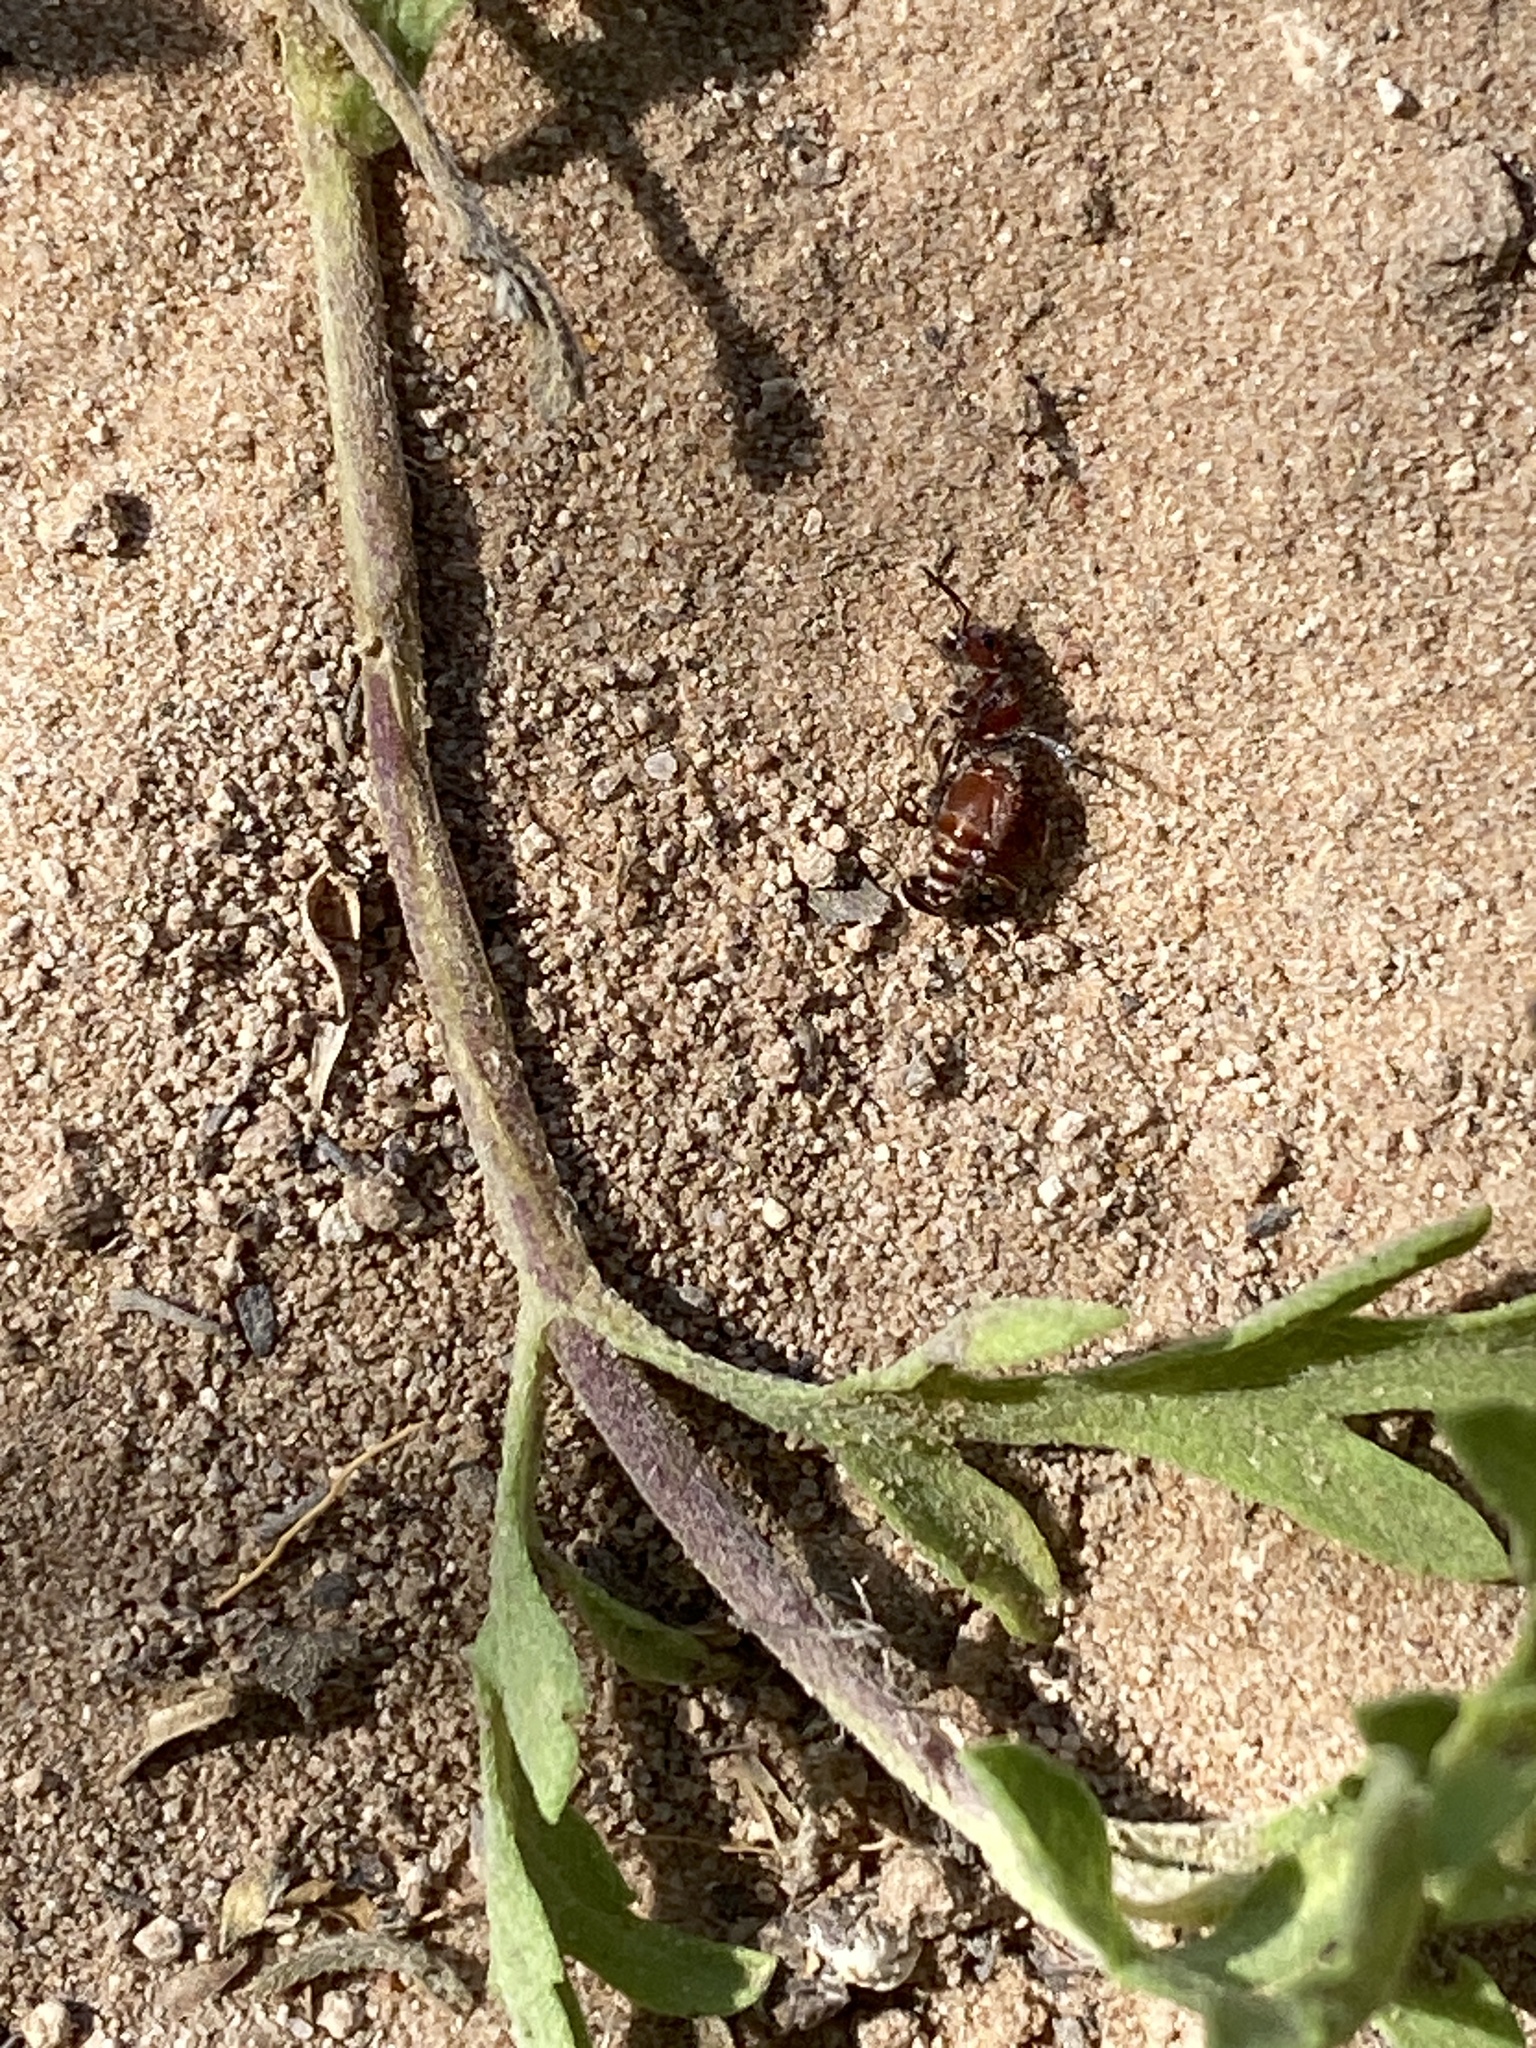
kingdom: Animalia
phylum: Arthropoda
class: Insecta
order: Hymenoptera
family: Mutillidae
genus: Pseudomethoca
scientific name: Pseudomethoca
